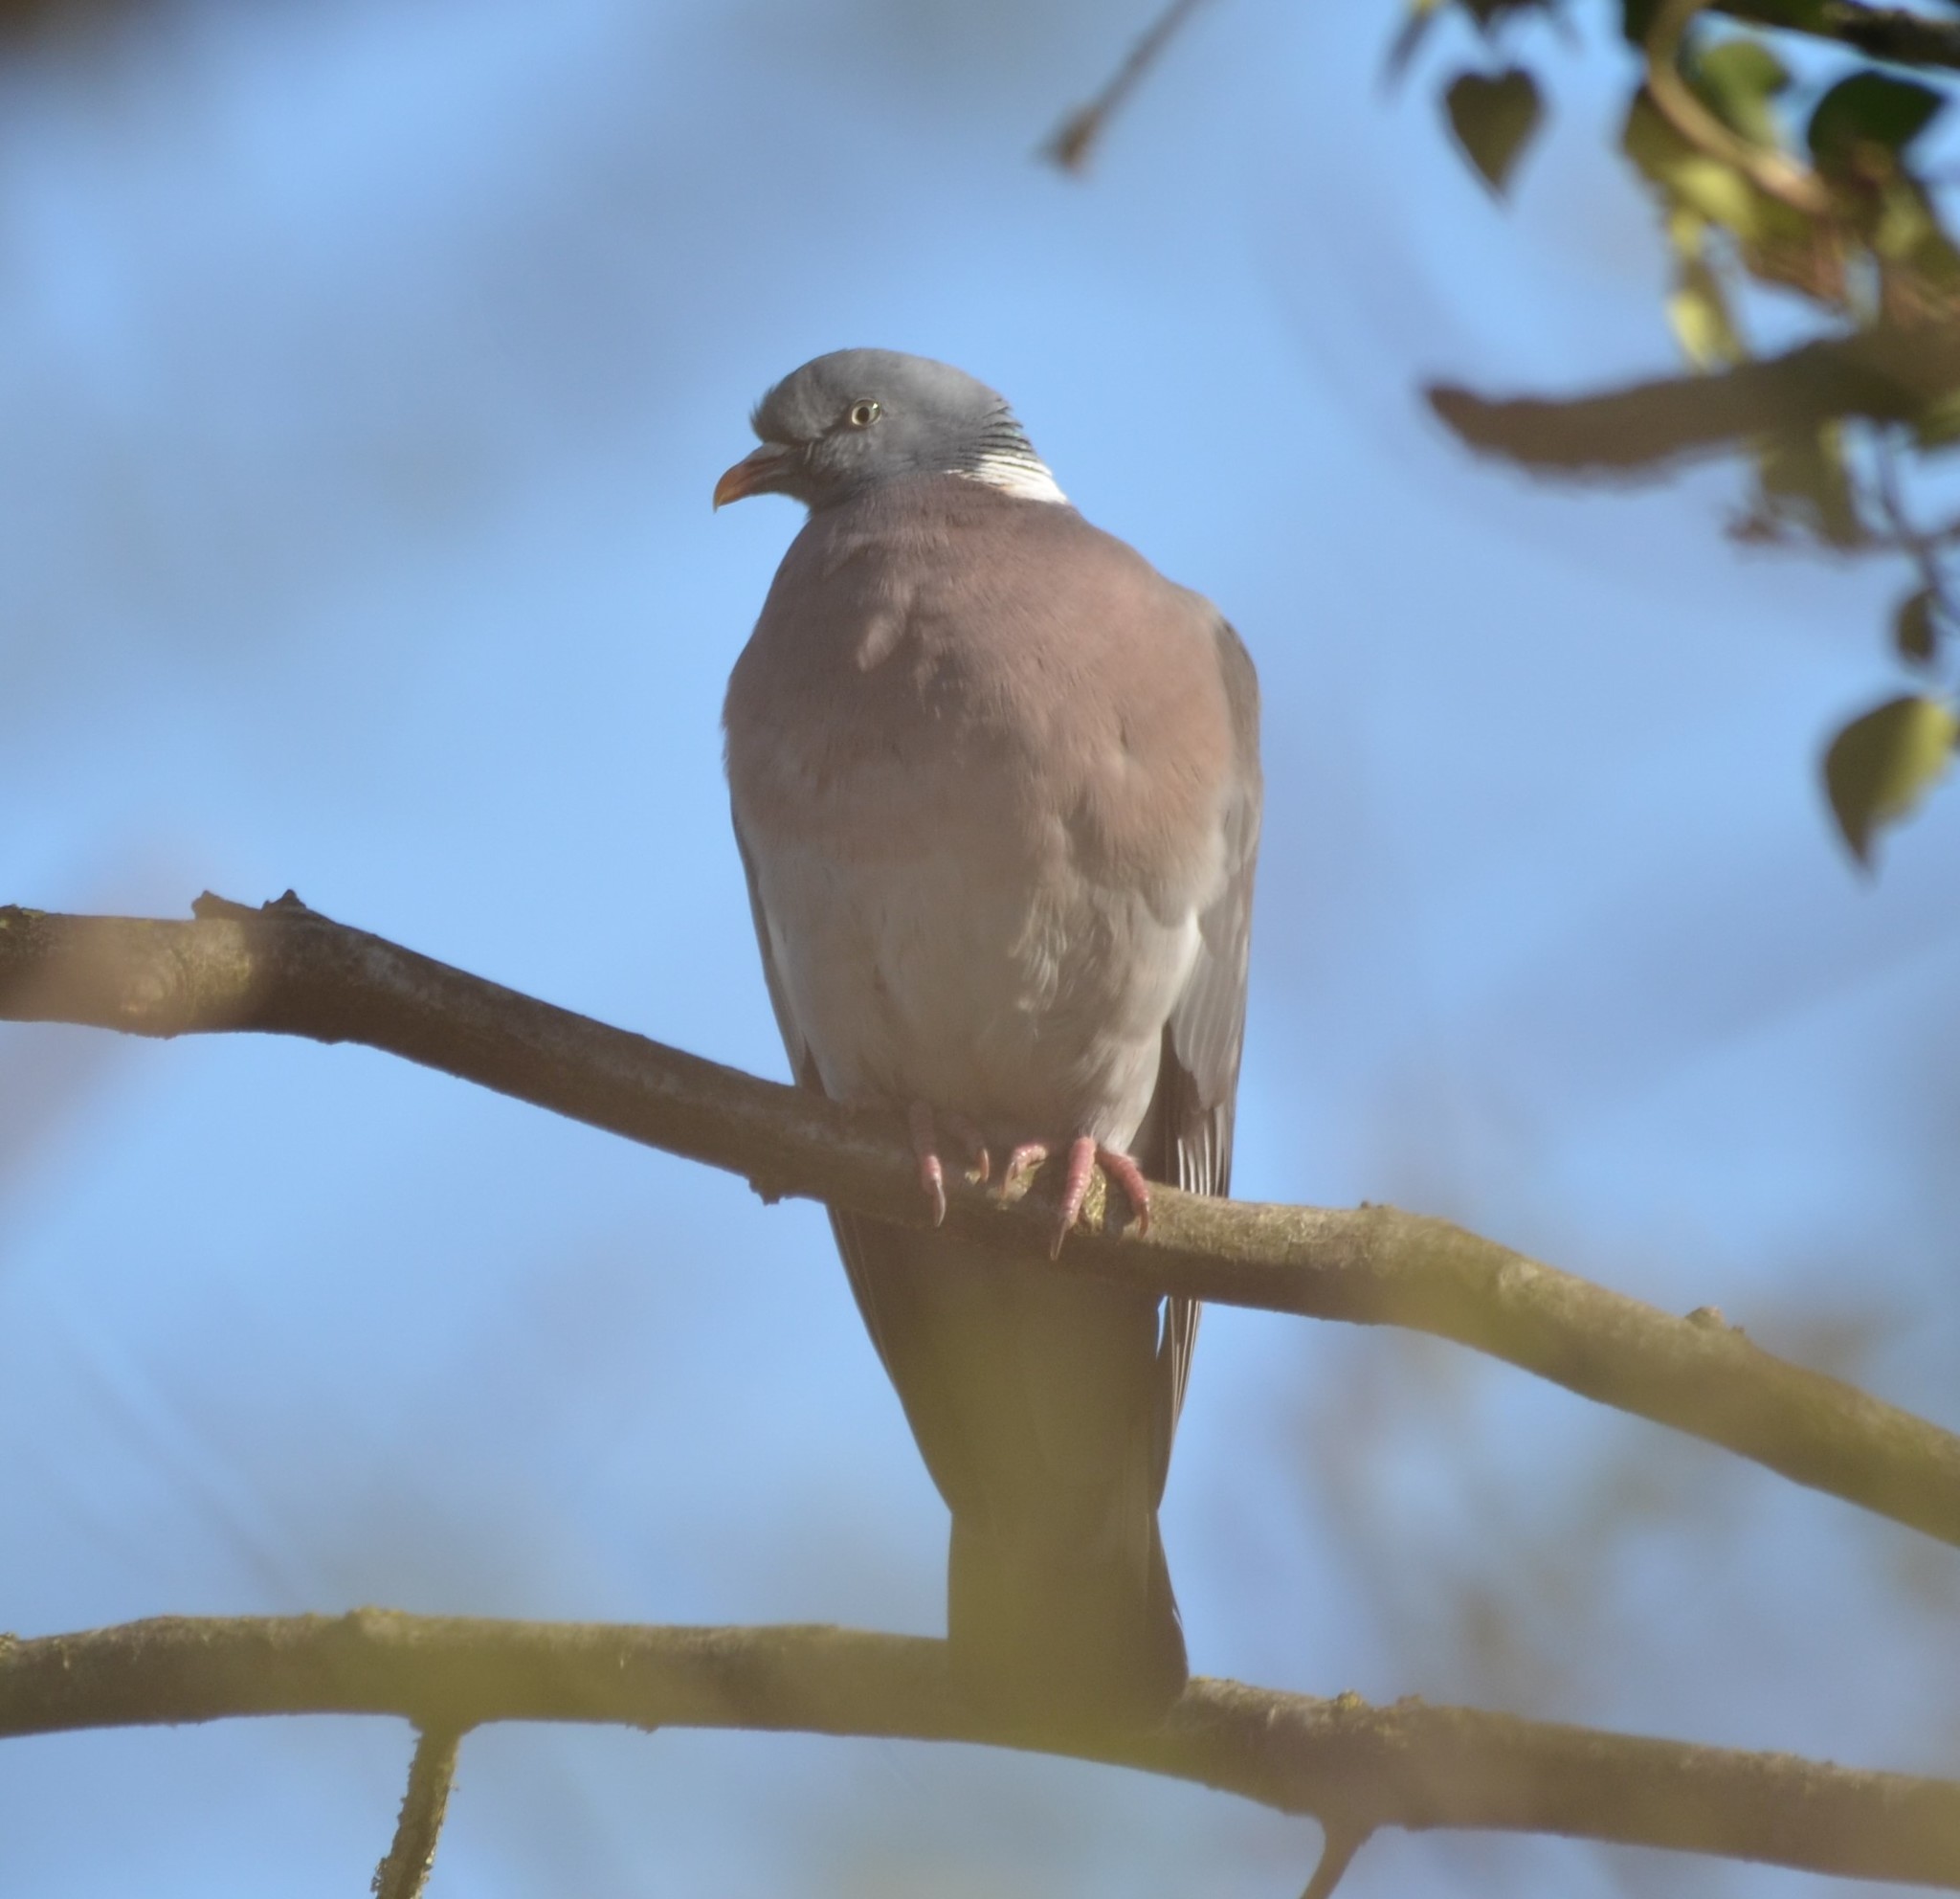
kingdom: Animalia
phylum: Chordata
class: Aves
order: Columbiformes
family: Columbidae
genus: Columba
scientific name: Columba palumbus
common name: Common wood pigeon
